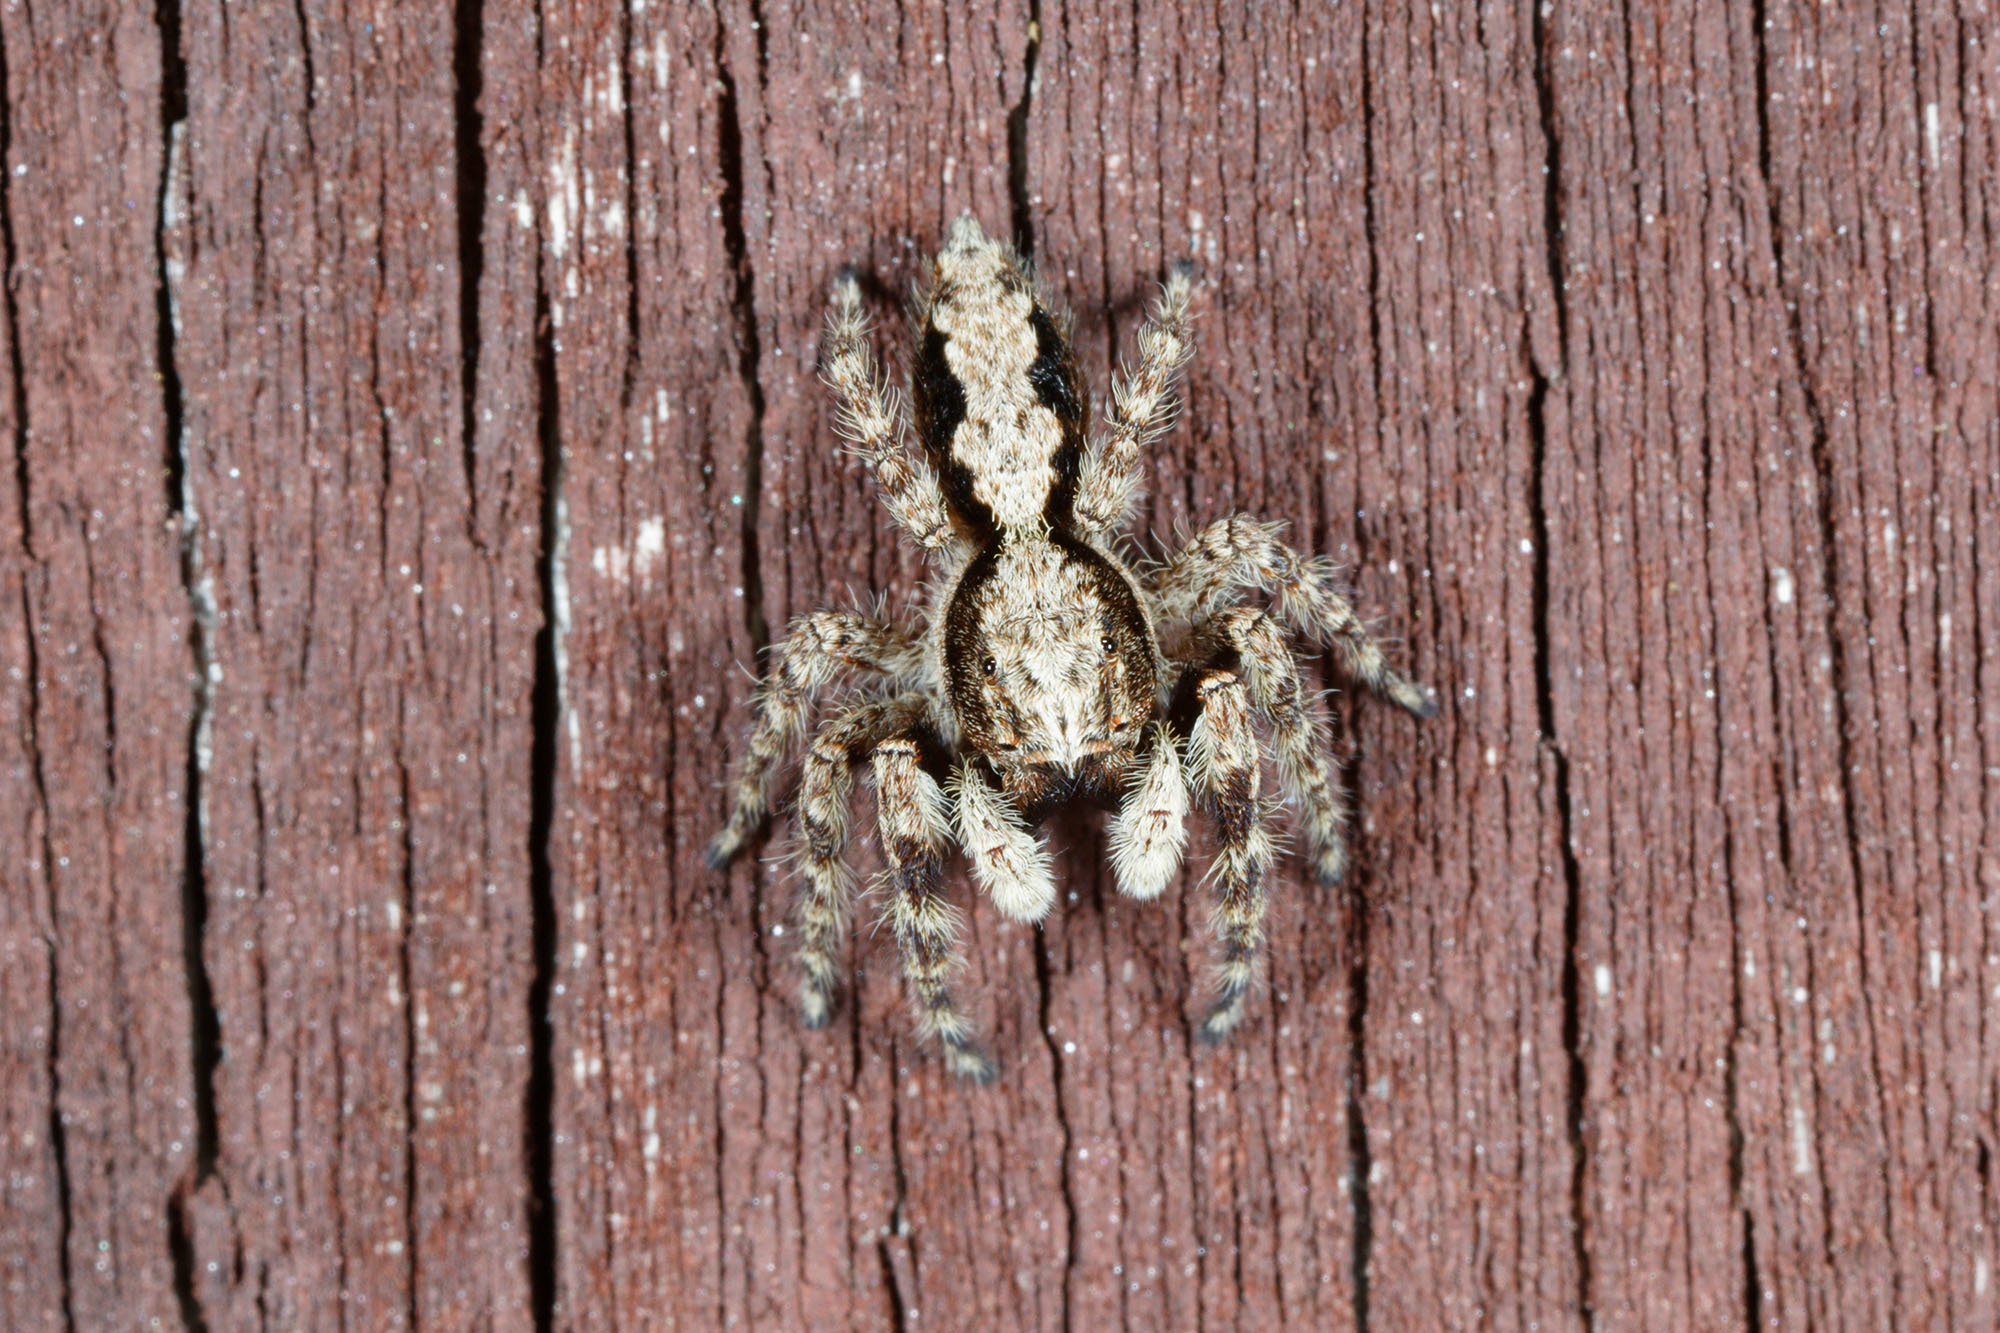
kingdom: Animalia
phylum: Arthropoda
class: Arachnida
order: Araneae
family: Salticidae
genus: Clynotis
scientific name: Clynotis severus
